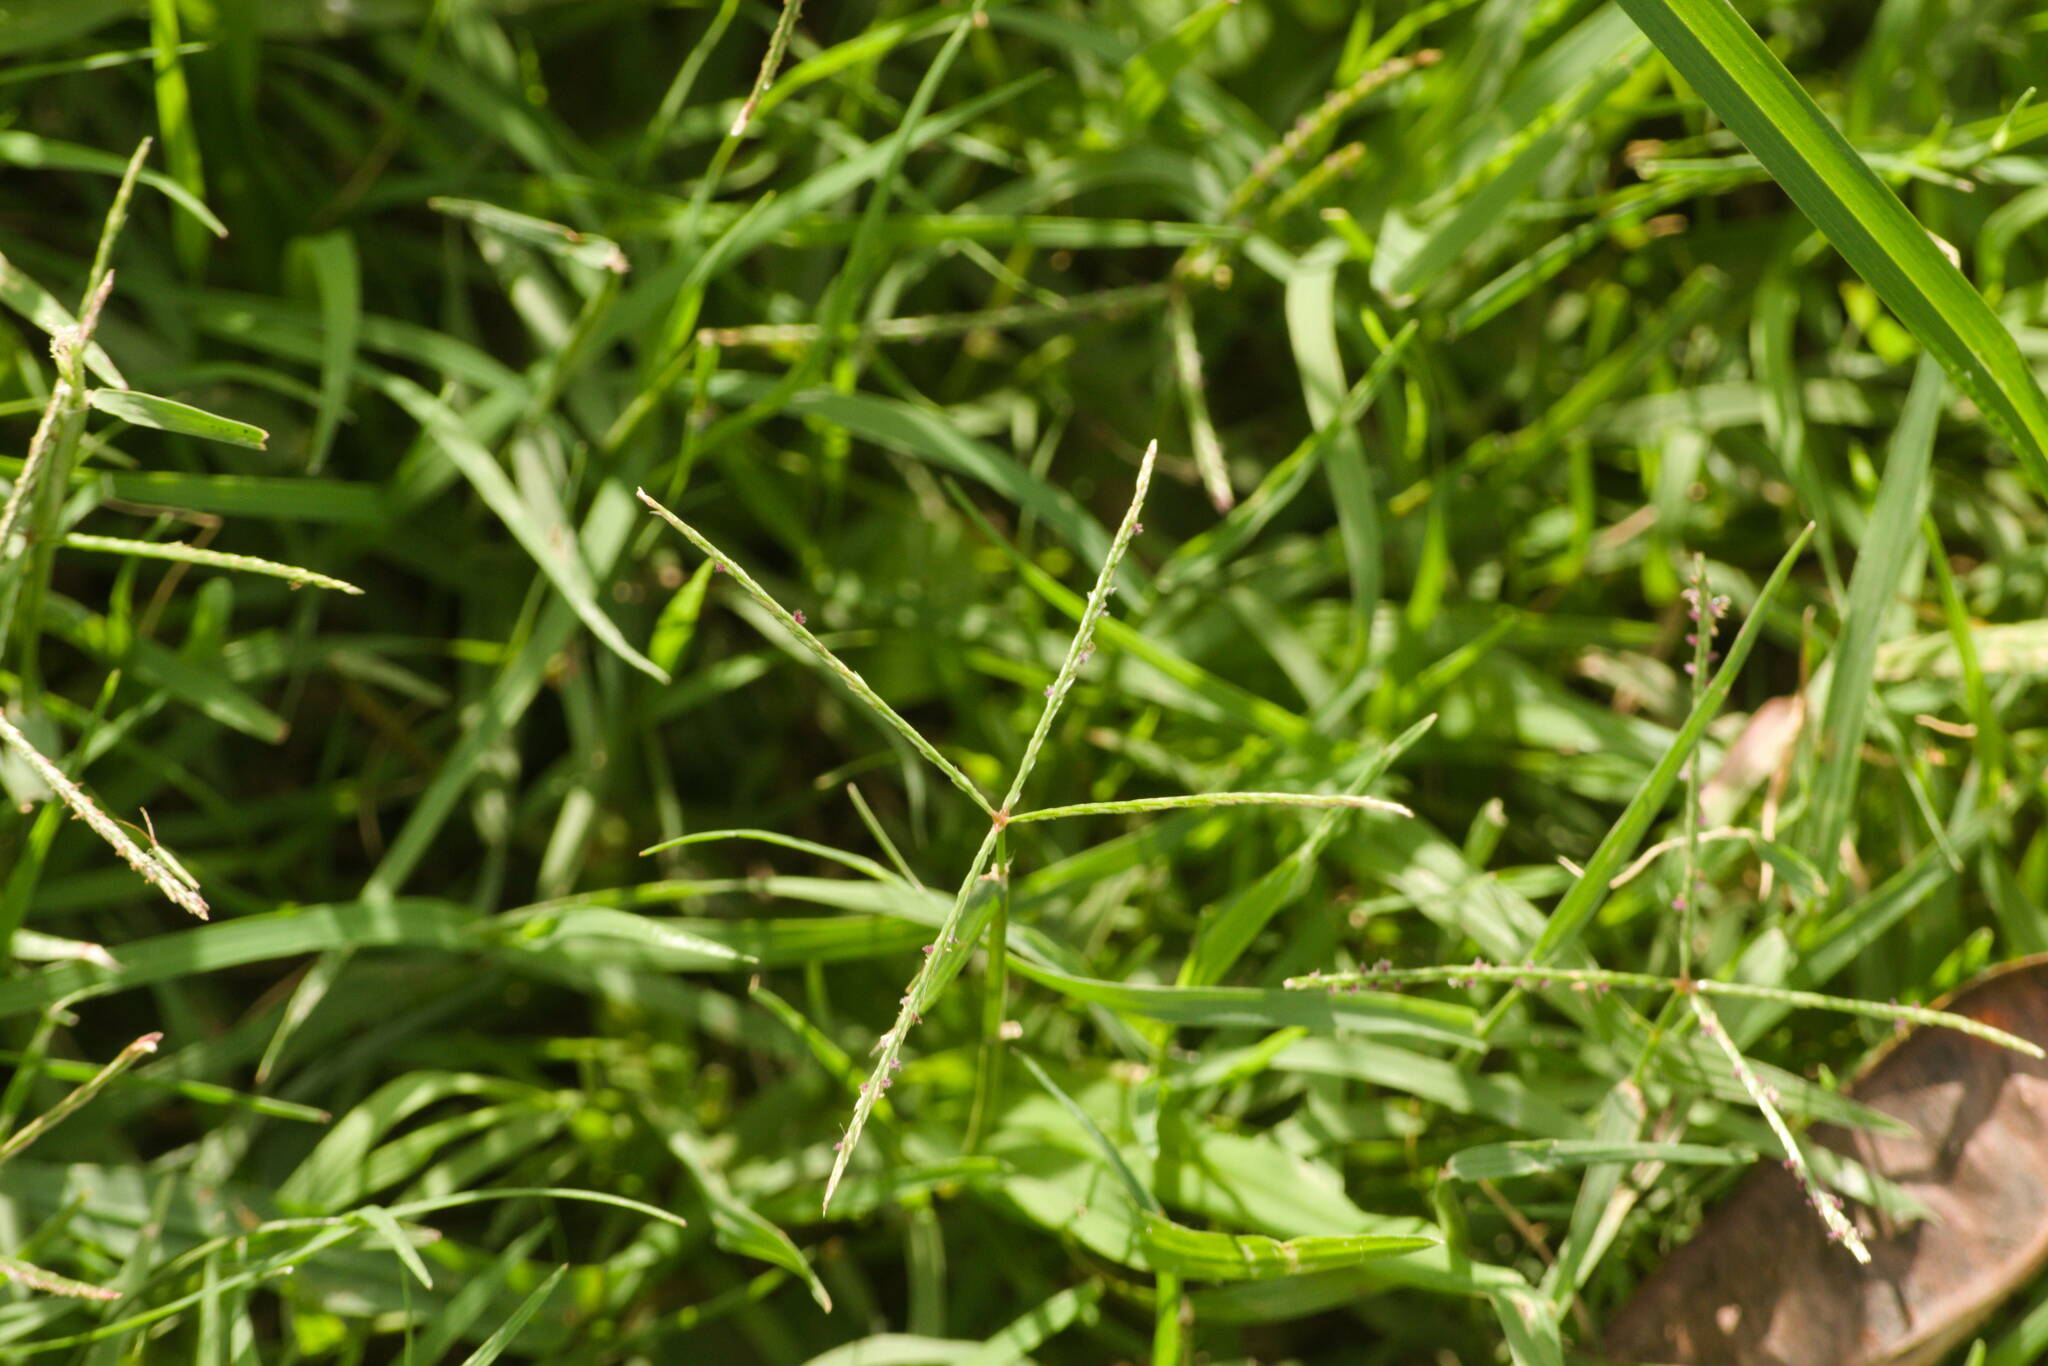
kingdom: Plantae
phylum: Tracheophyta
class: Liliopsida
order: Poales
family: Poaceae
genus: Cynodon
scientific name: Cynodon dactylon
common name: Bermuda grass
